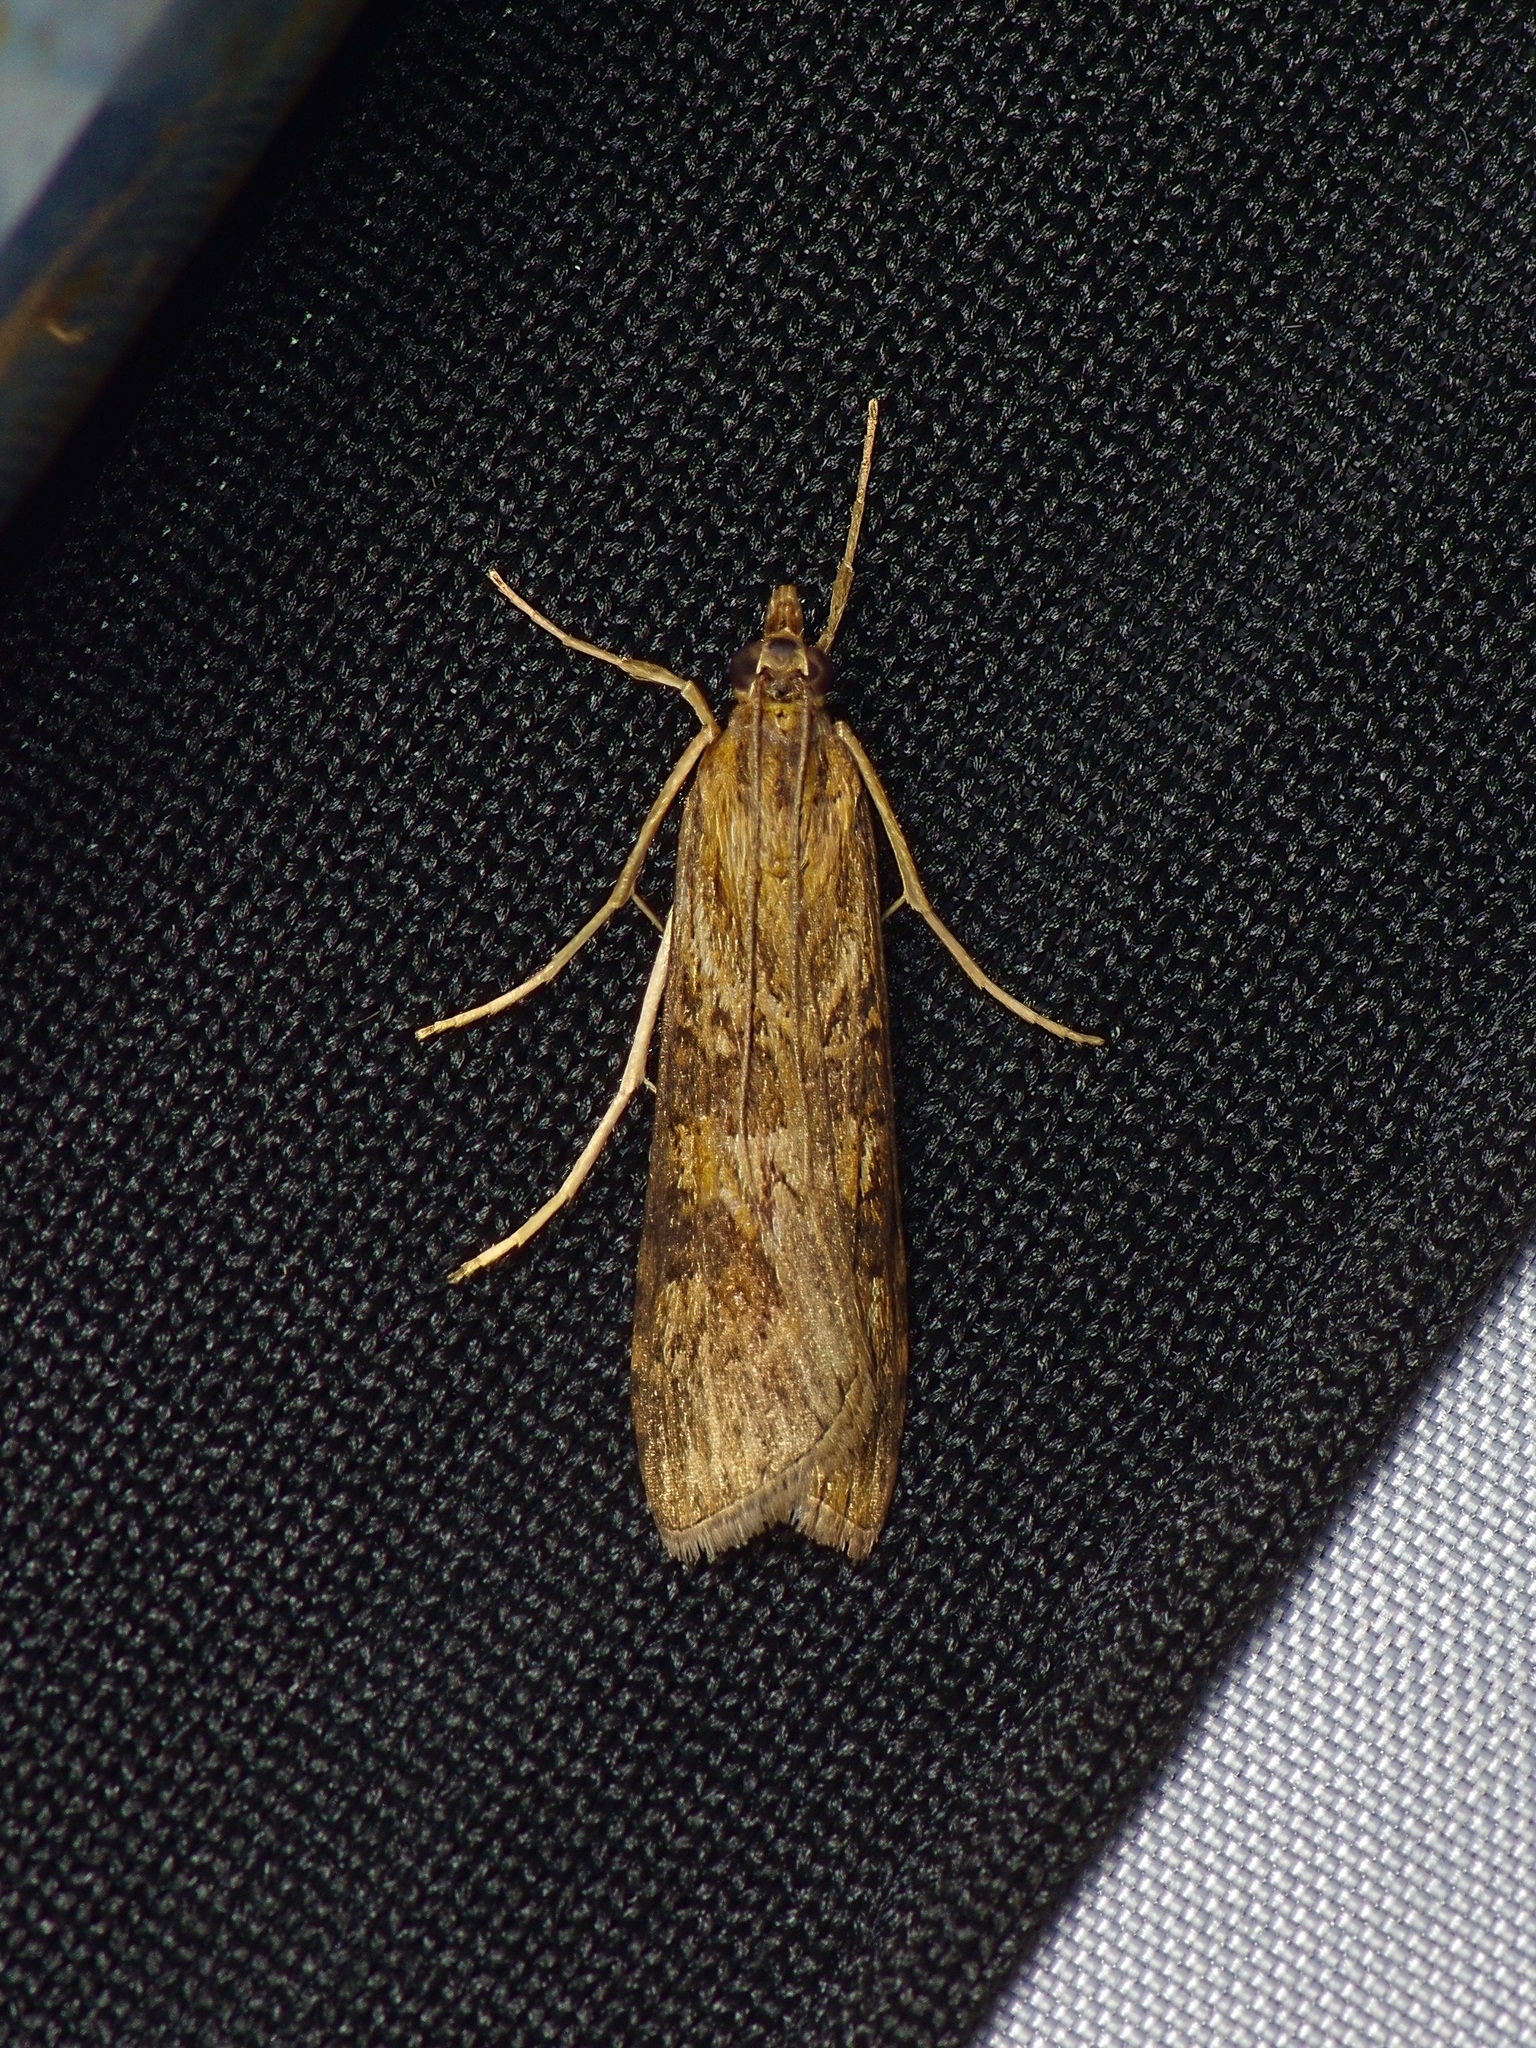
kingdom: Animalia
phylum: Arthropoda
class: Insecta
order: Lepidoptera
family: Crambidae
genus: Nomophila
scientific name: Nomophila nearctica
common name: American rush veneer
